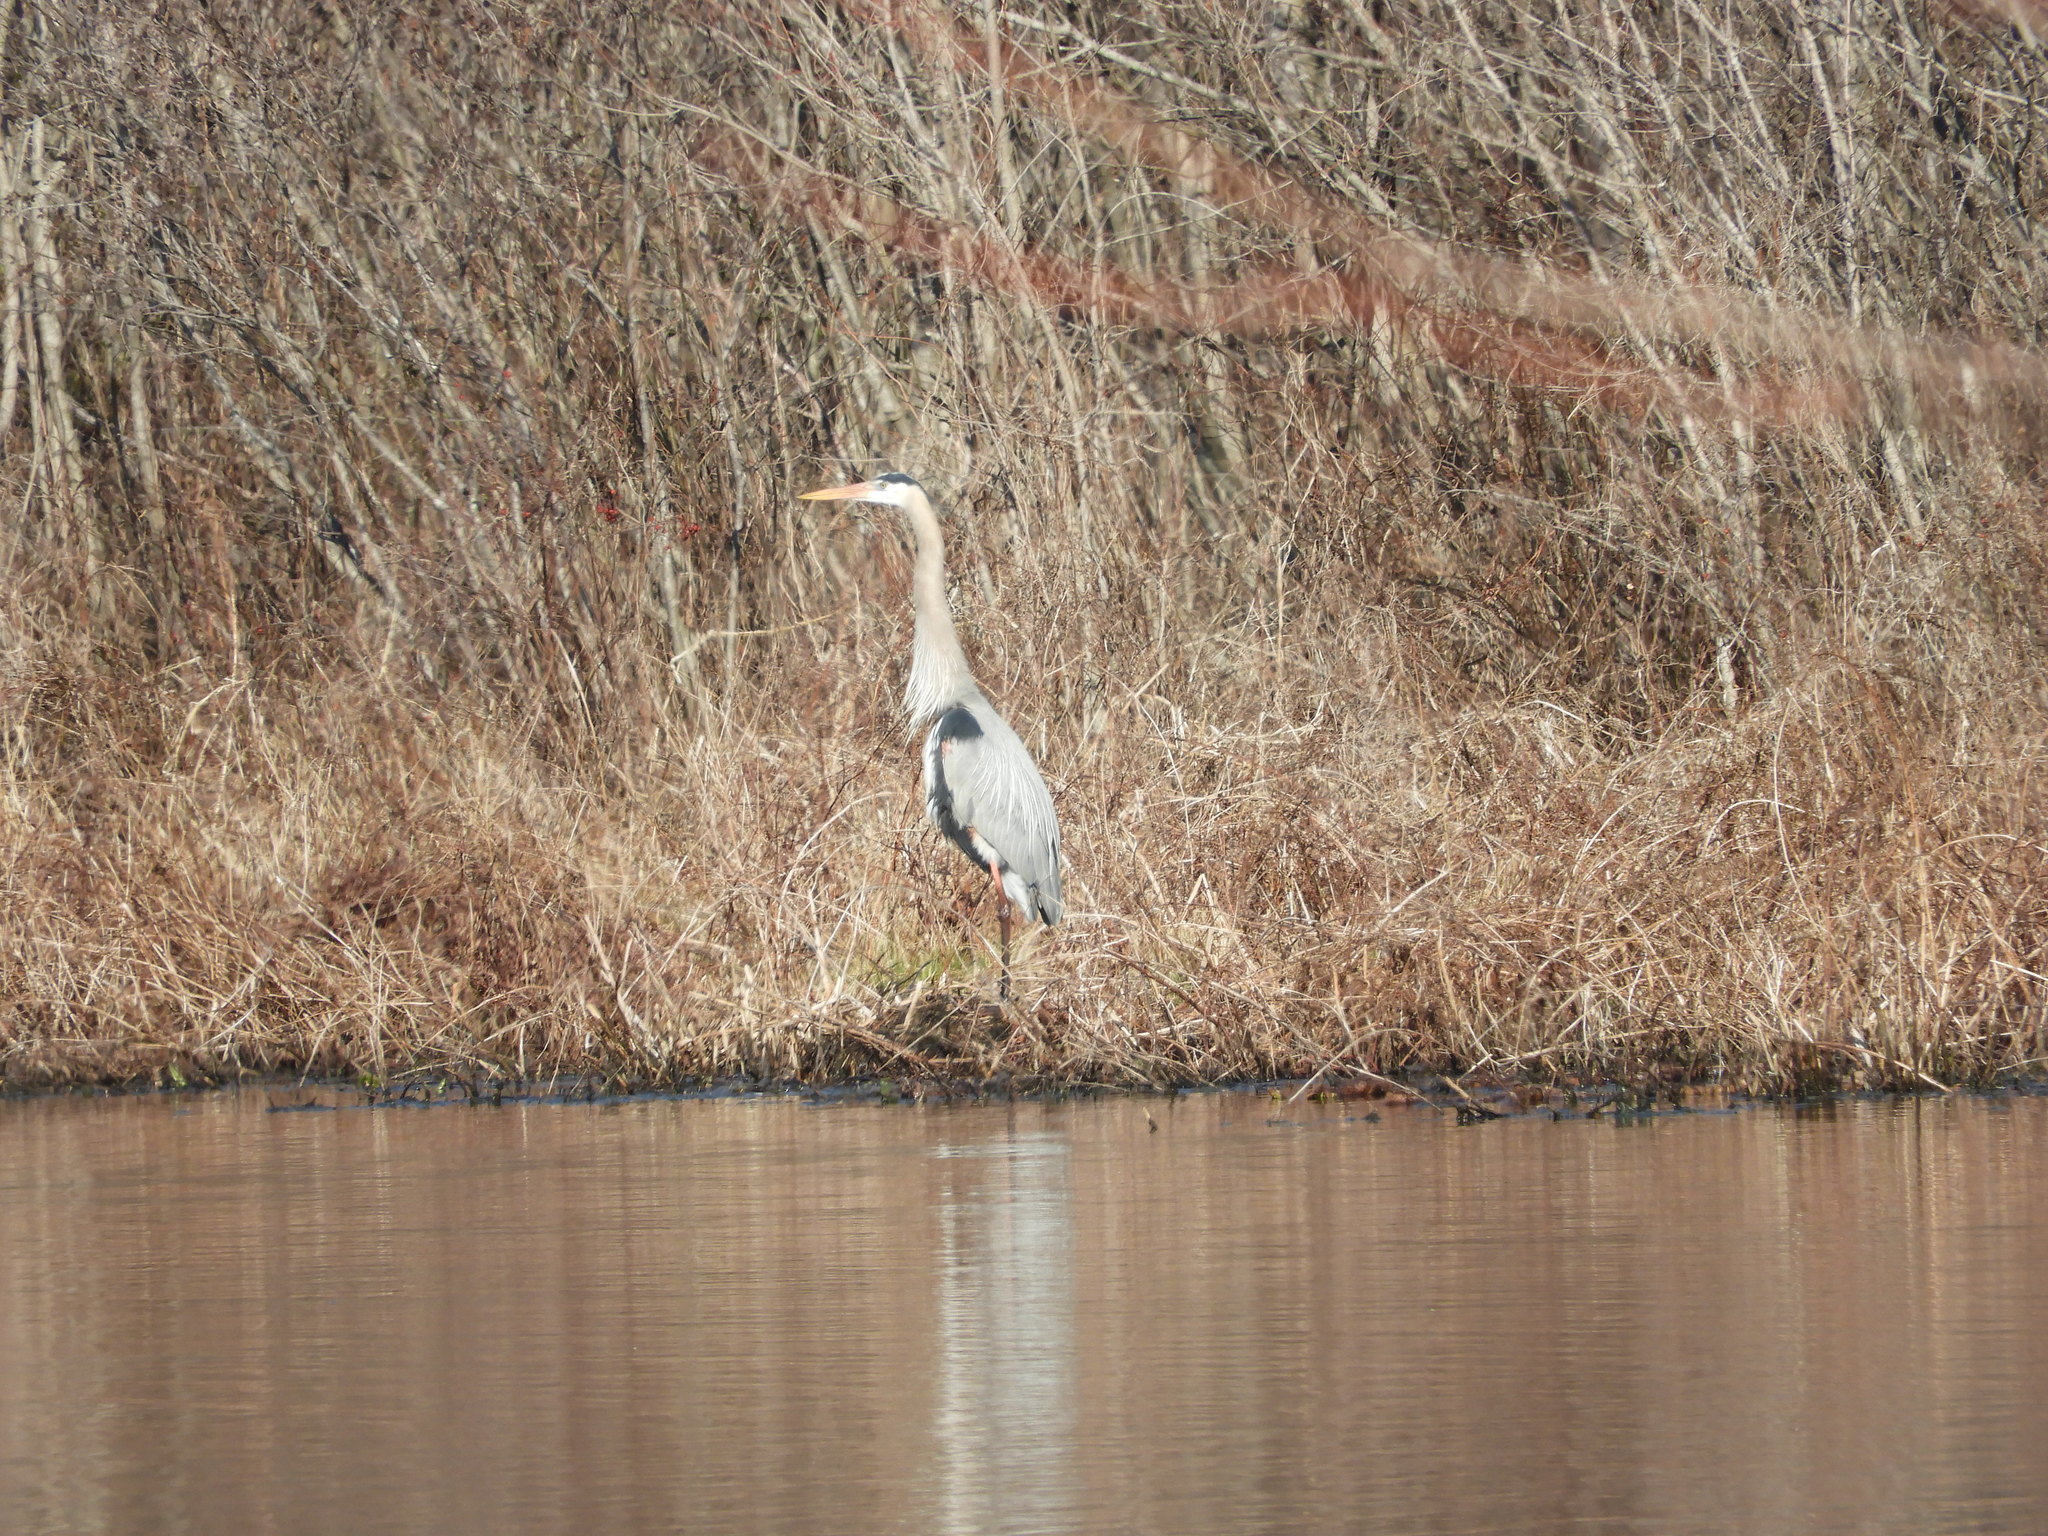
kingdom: Animalia
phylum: Chordata
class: Aves
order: Pelecaniformes
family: Ardeidae
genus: Ardea
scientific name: Ardea herodias
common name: Great blue heron
